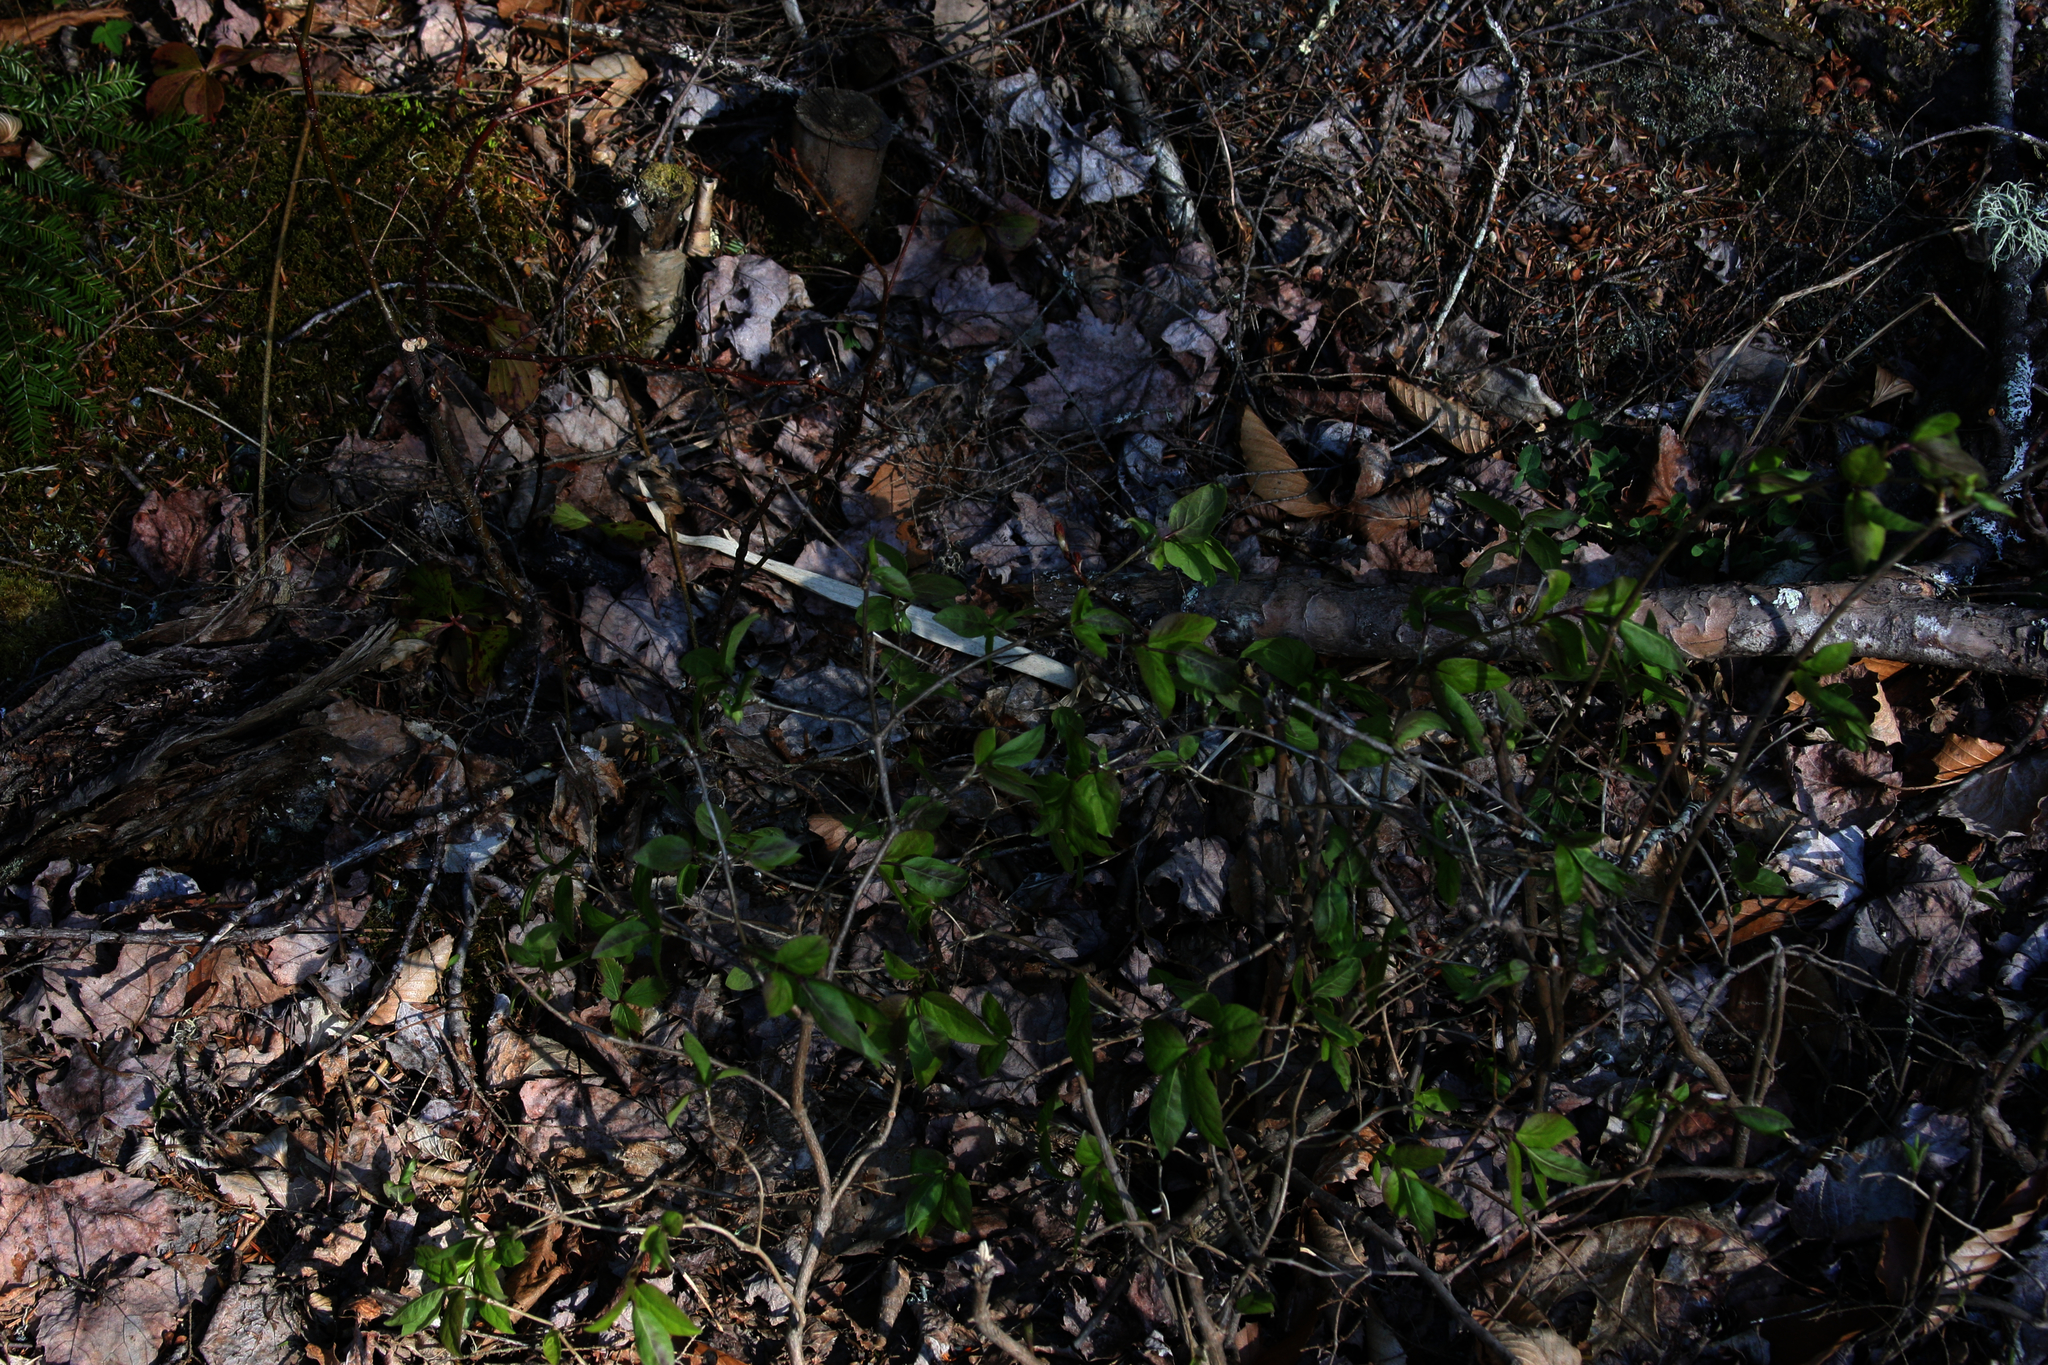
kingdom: Plantae
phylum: Tracheophyta
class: Magnoliopsida
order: Dipsacales
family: Caprifoliaceae
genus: Lonicera
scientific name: Lonicera canadensis
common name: American fly-honeysuckle
